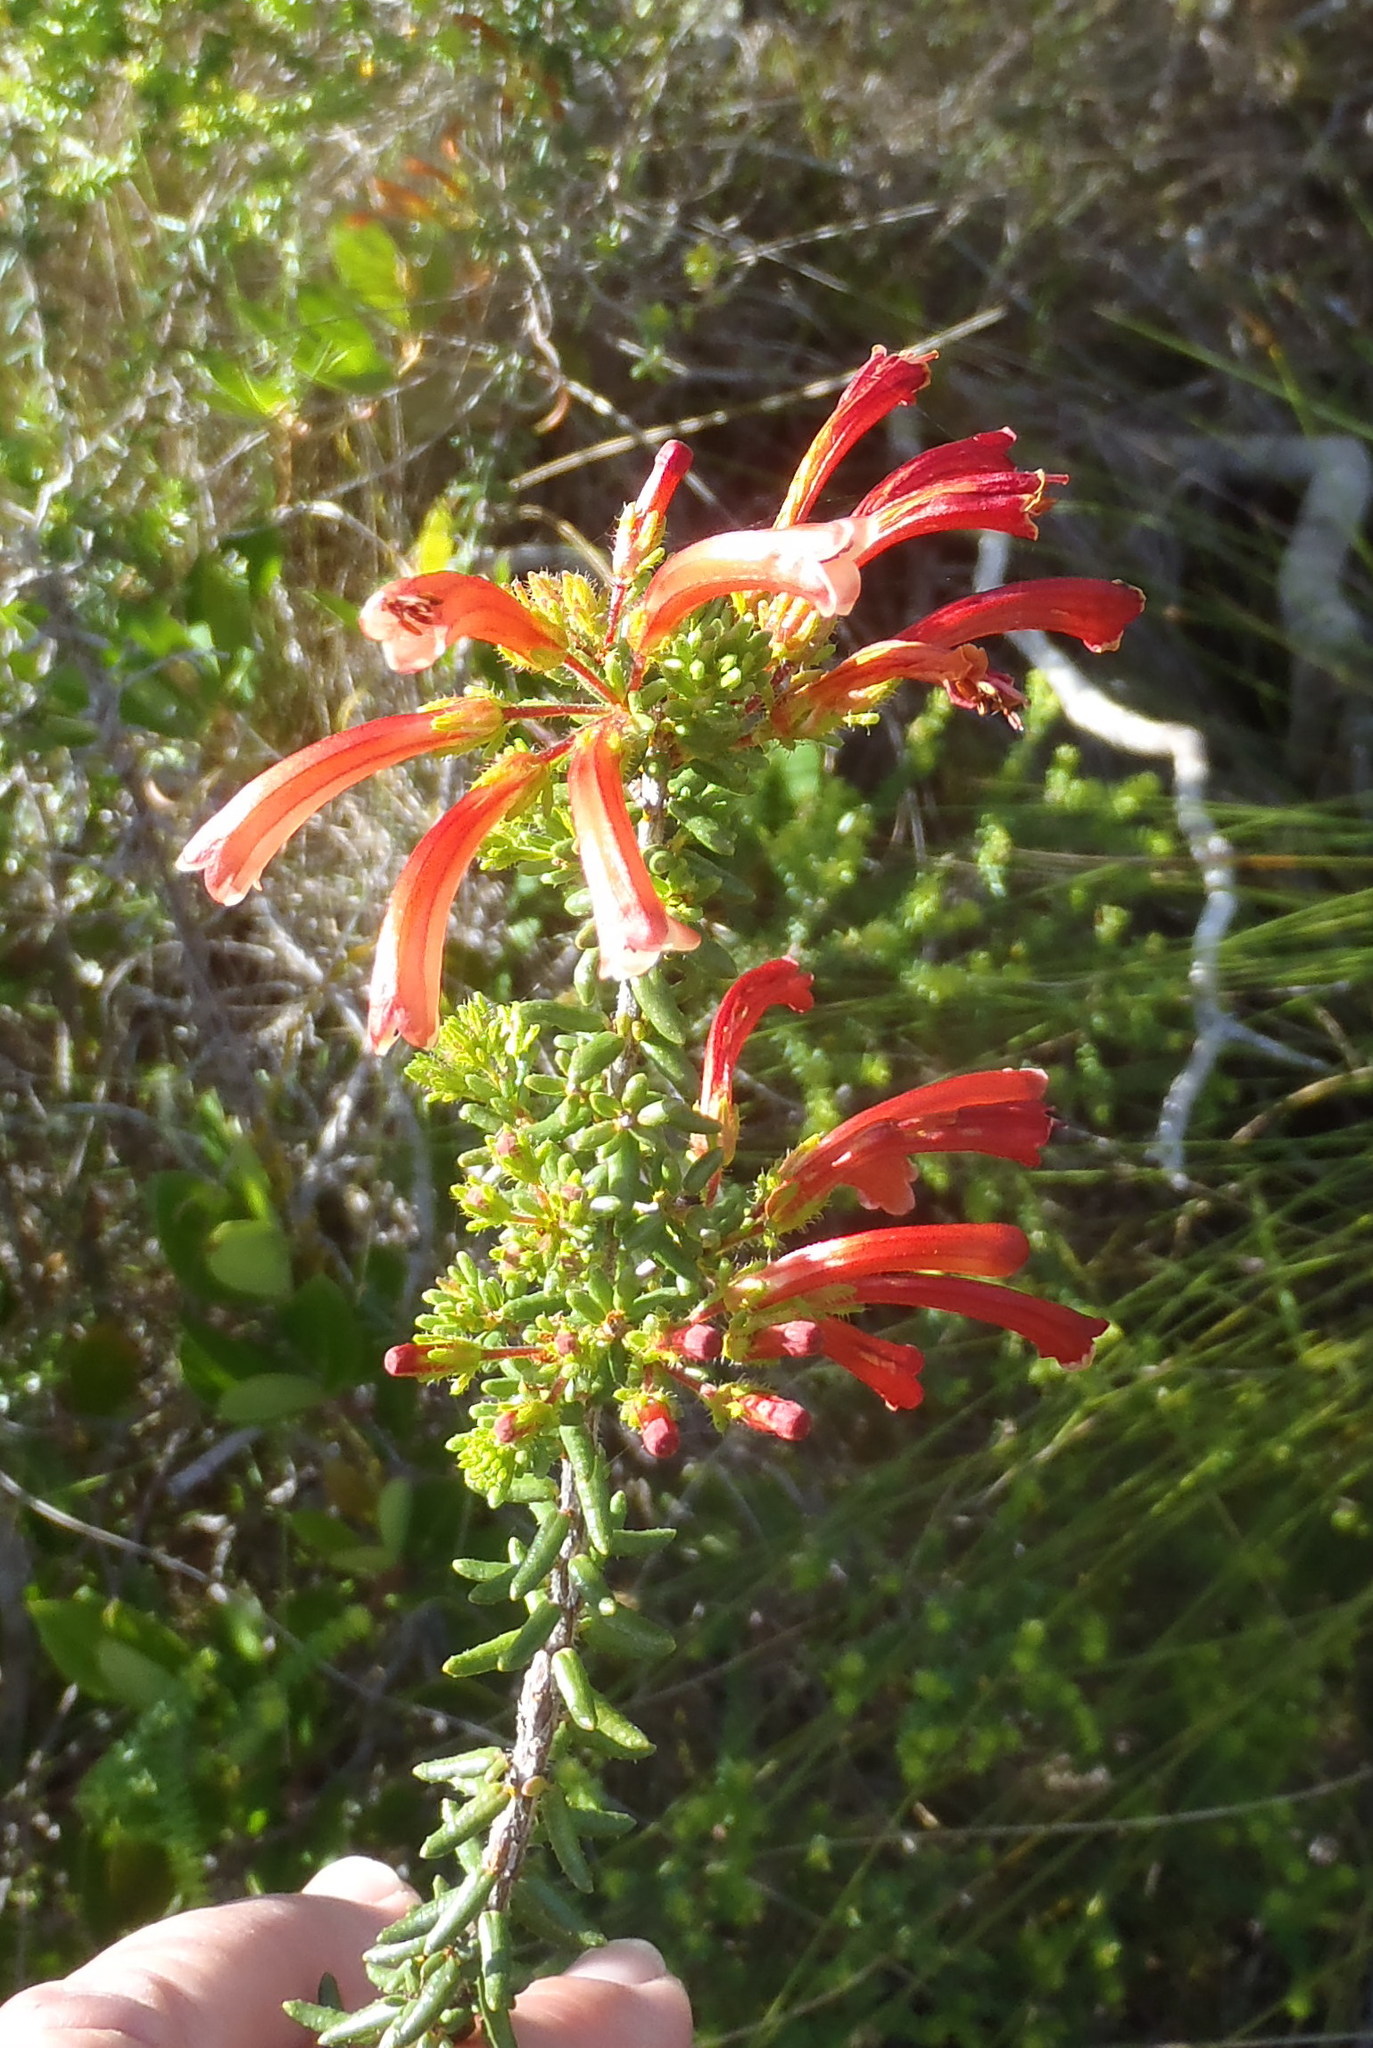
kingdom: Plantae
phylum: Tracheophyta
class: Magnoliopsida
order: Ericales
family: Ericaceae
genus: Erica
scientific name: Erica glandulosa
